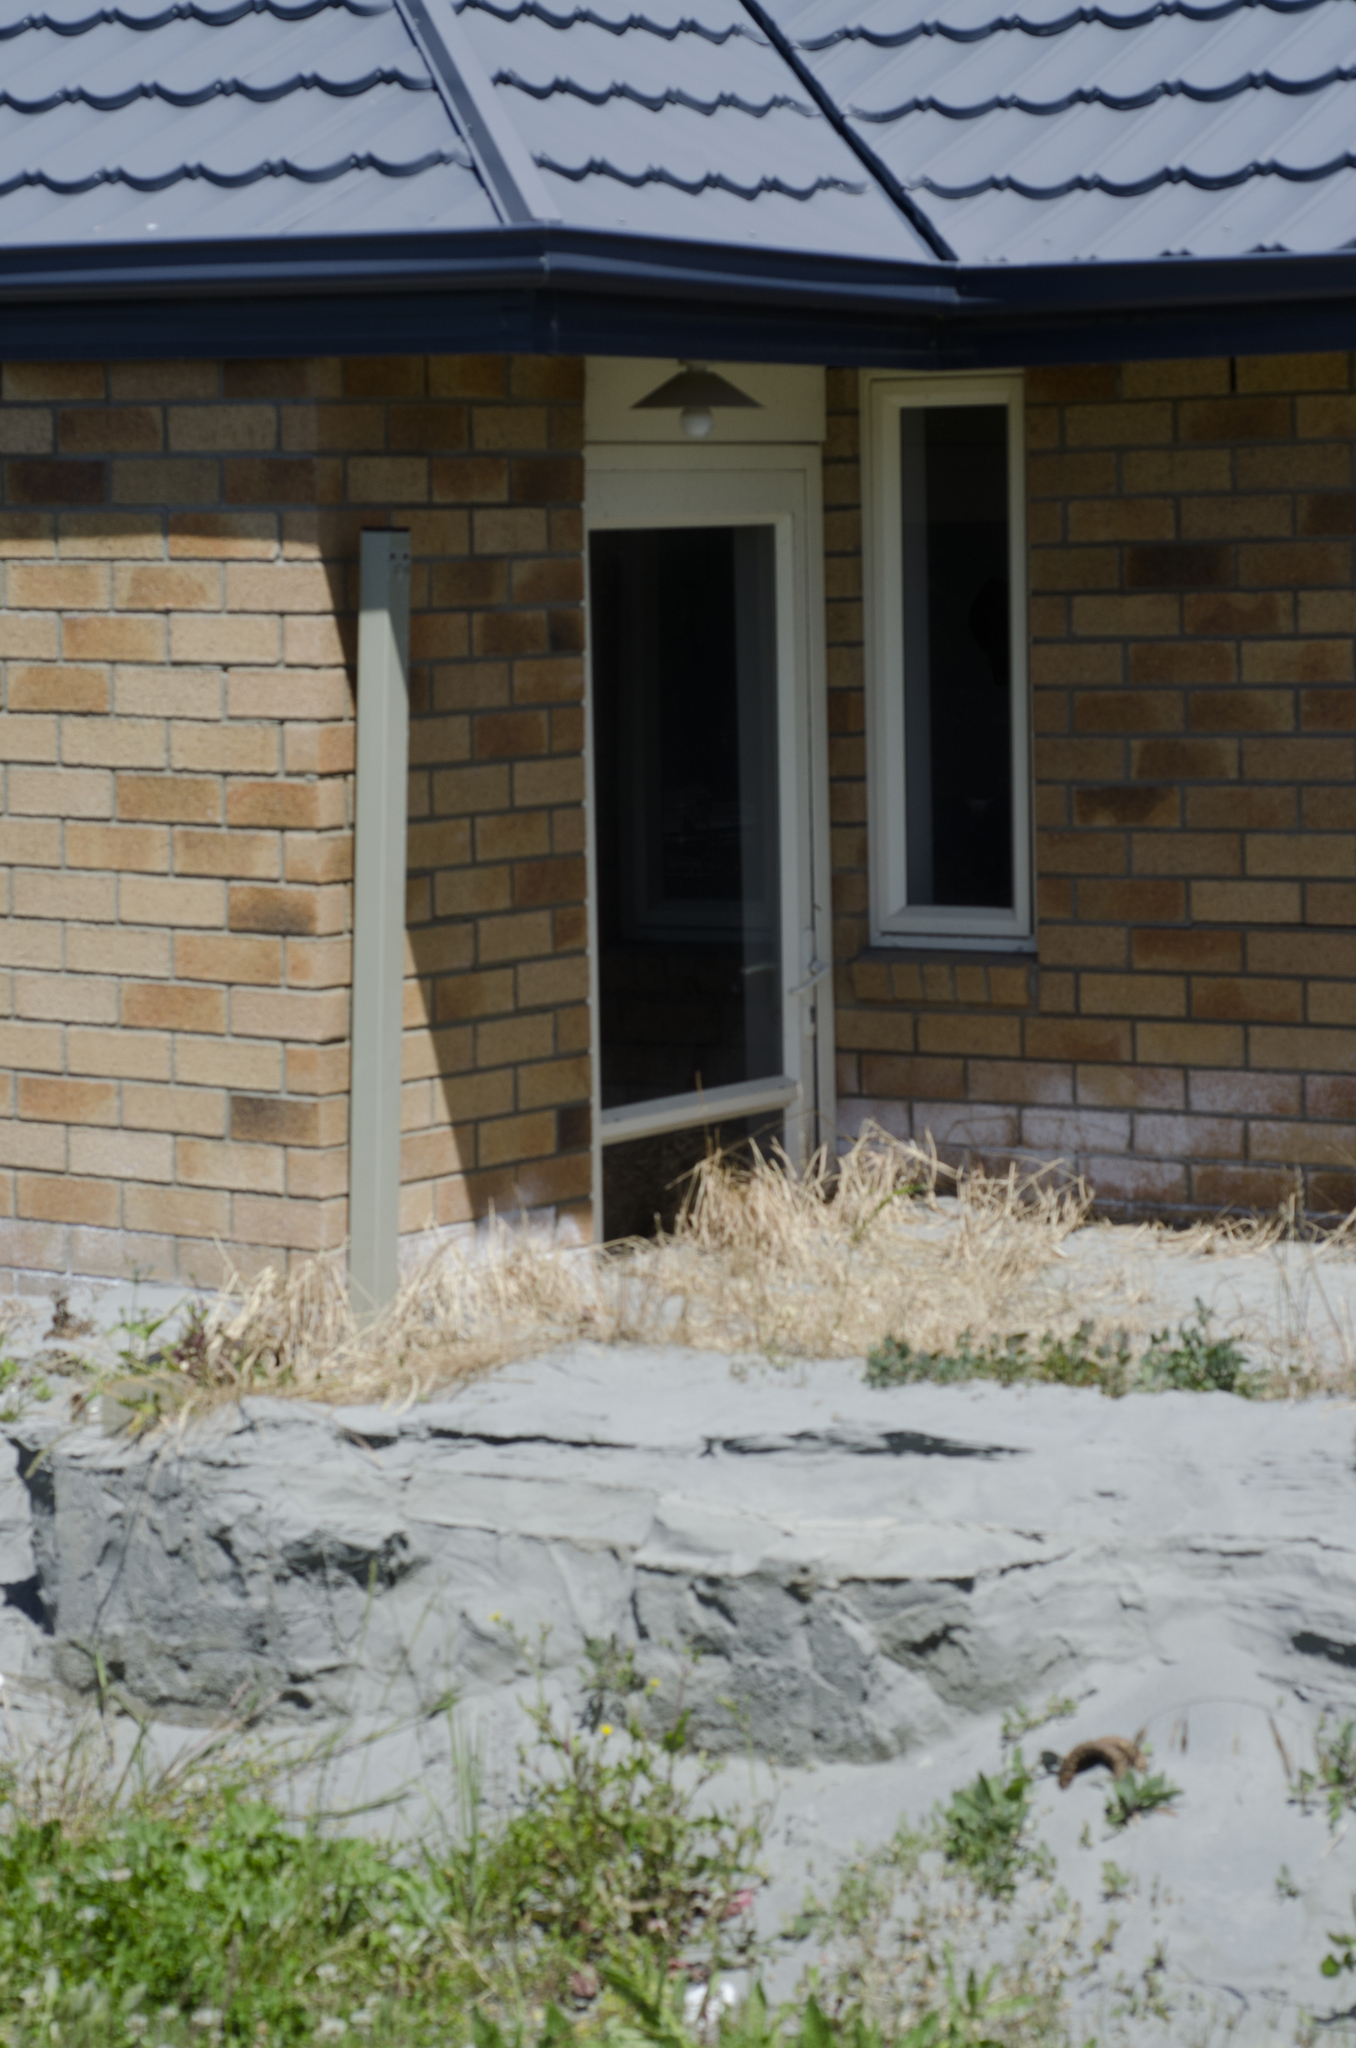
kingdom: Fungi
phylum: Ascomycota
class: Dothideomycetes
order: Pleosporales
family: Pleosporaceae
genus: Alternaria
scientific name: Alternaria malorum
